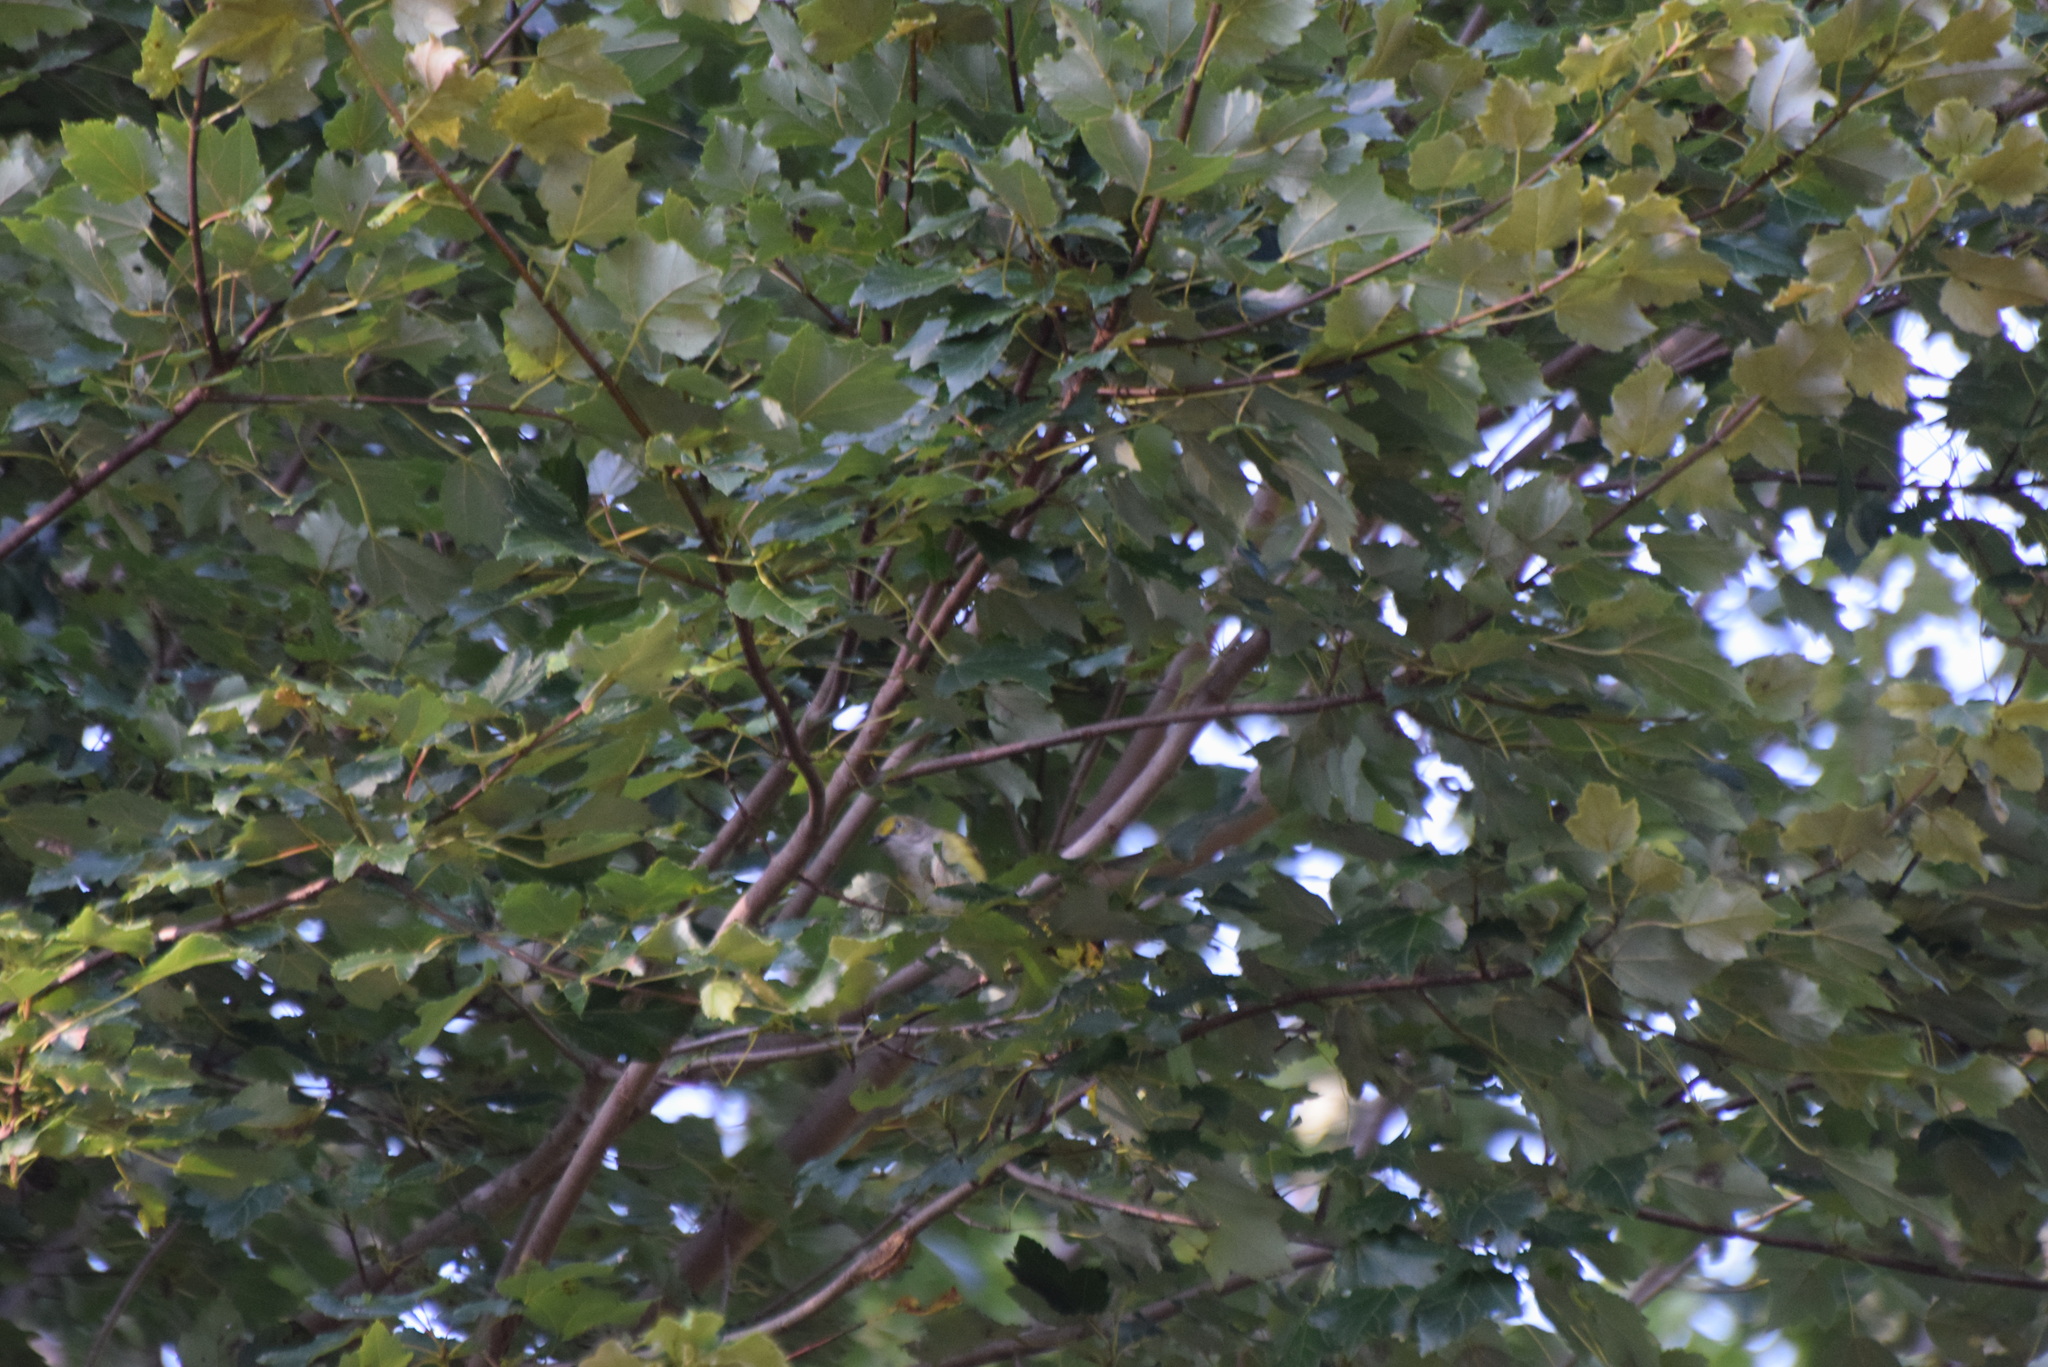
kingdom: Animalia
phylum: Chordata
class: Aves
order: Passeriformes
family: Vireonidae
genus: Vireo
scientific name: Vireo griseus
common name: White-eyed vireo
